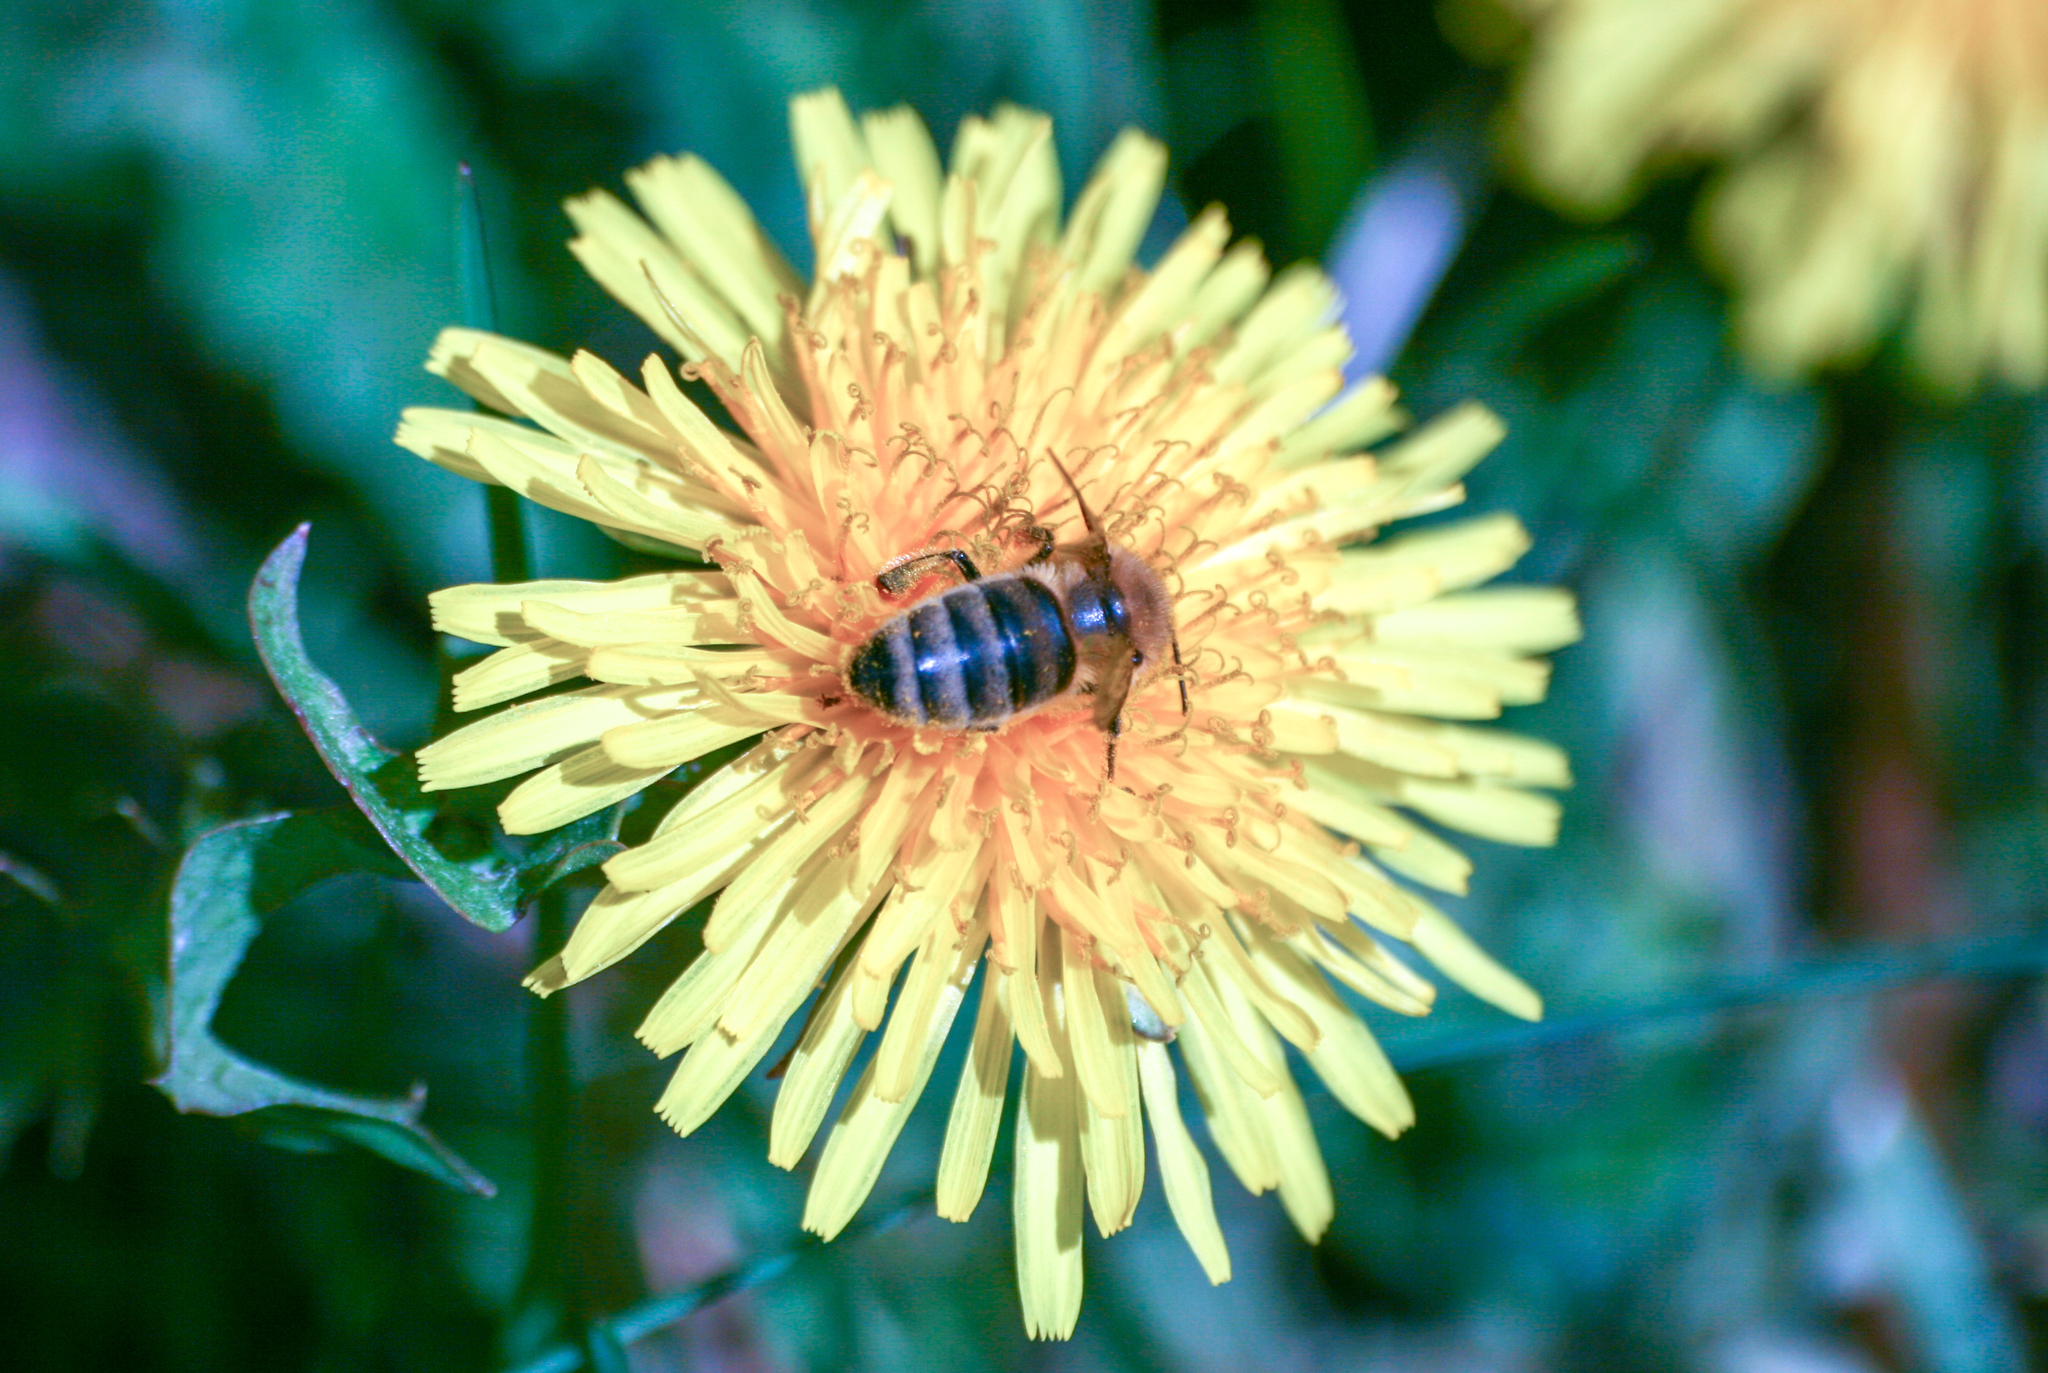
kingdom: Animalia
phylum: Arthropoda
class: Insecta
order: Hymenoptera
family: Apidae
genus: Apis
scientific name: Apis mellifera
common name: Honey bee
